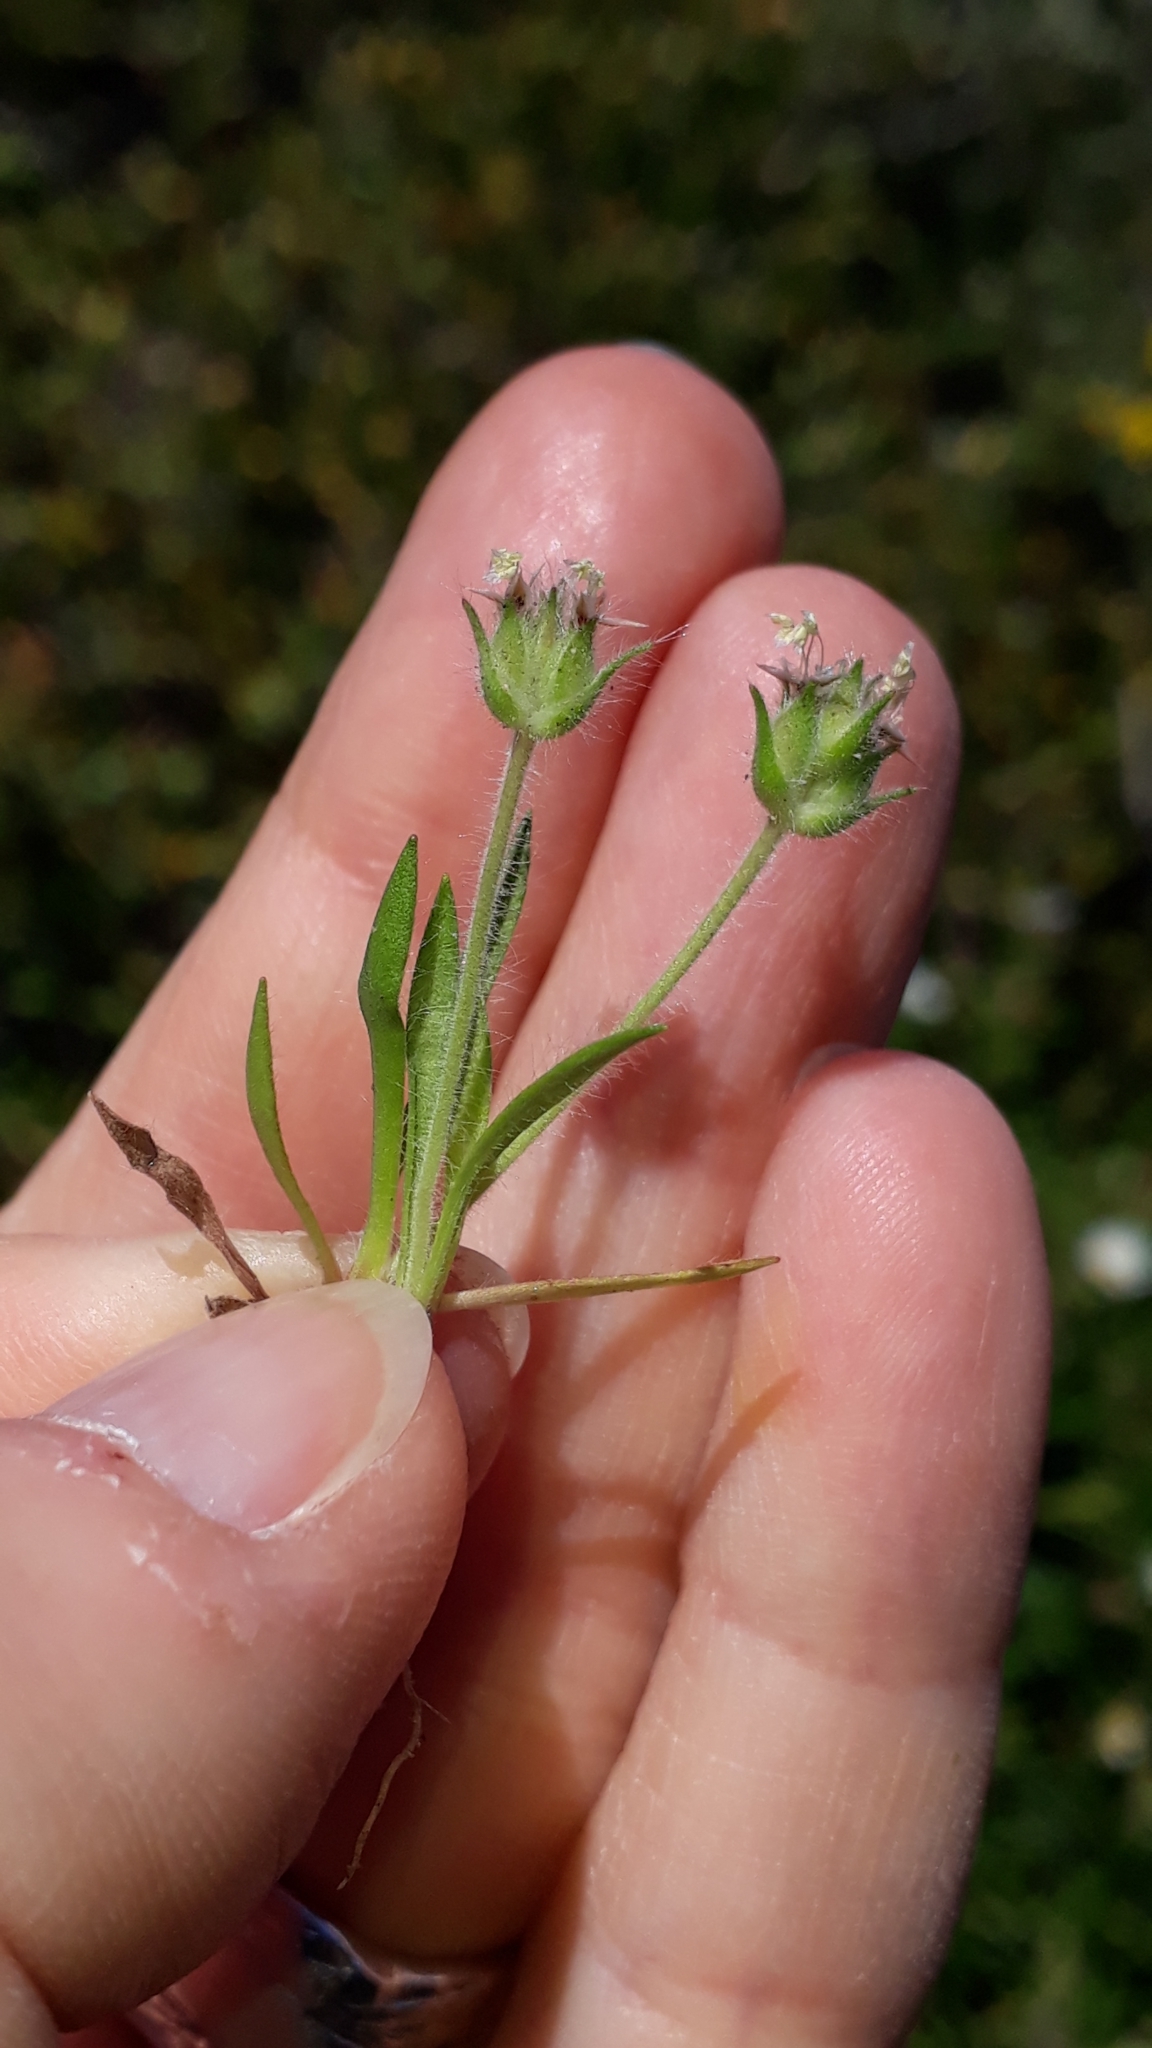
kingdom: Plantae
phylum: Tracheophyta
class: Magnoliopsida
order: Lamiales
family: Plantaginaceae
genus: Plantago
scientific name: Plantago bellardii
